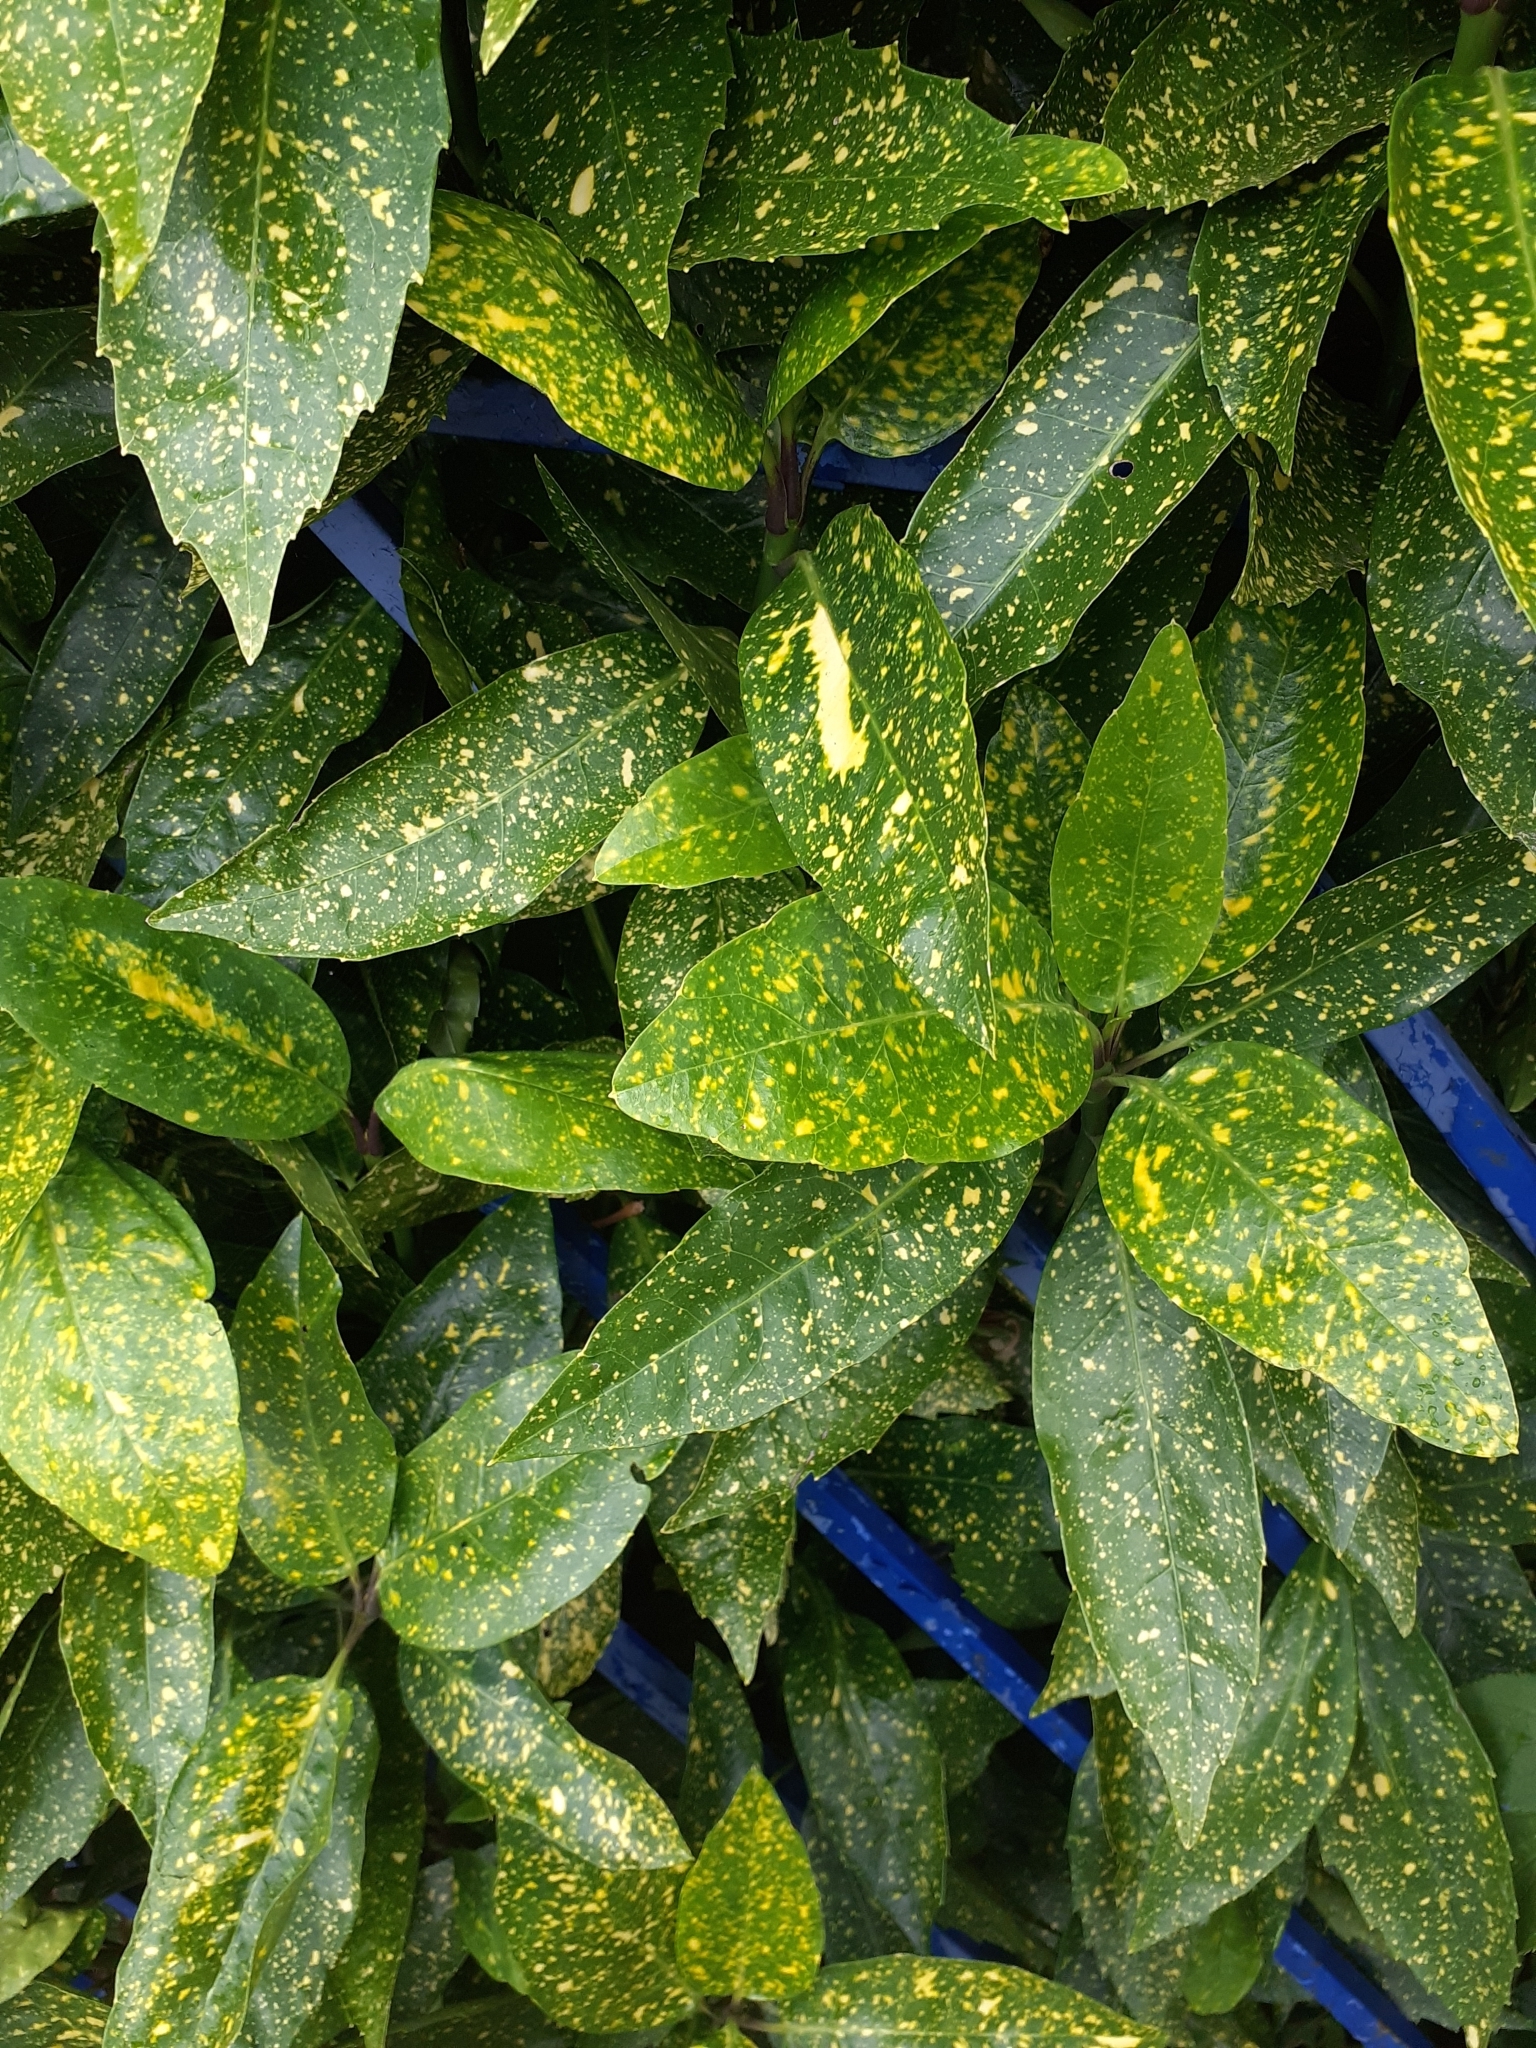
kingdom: Plantae
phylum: Tracheophyta
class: Magnoliopsida
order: Garryales
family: Garryaceae
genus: Aucuba
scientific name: Aucuba japonica
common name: Spotted-laurel
